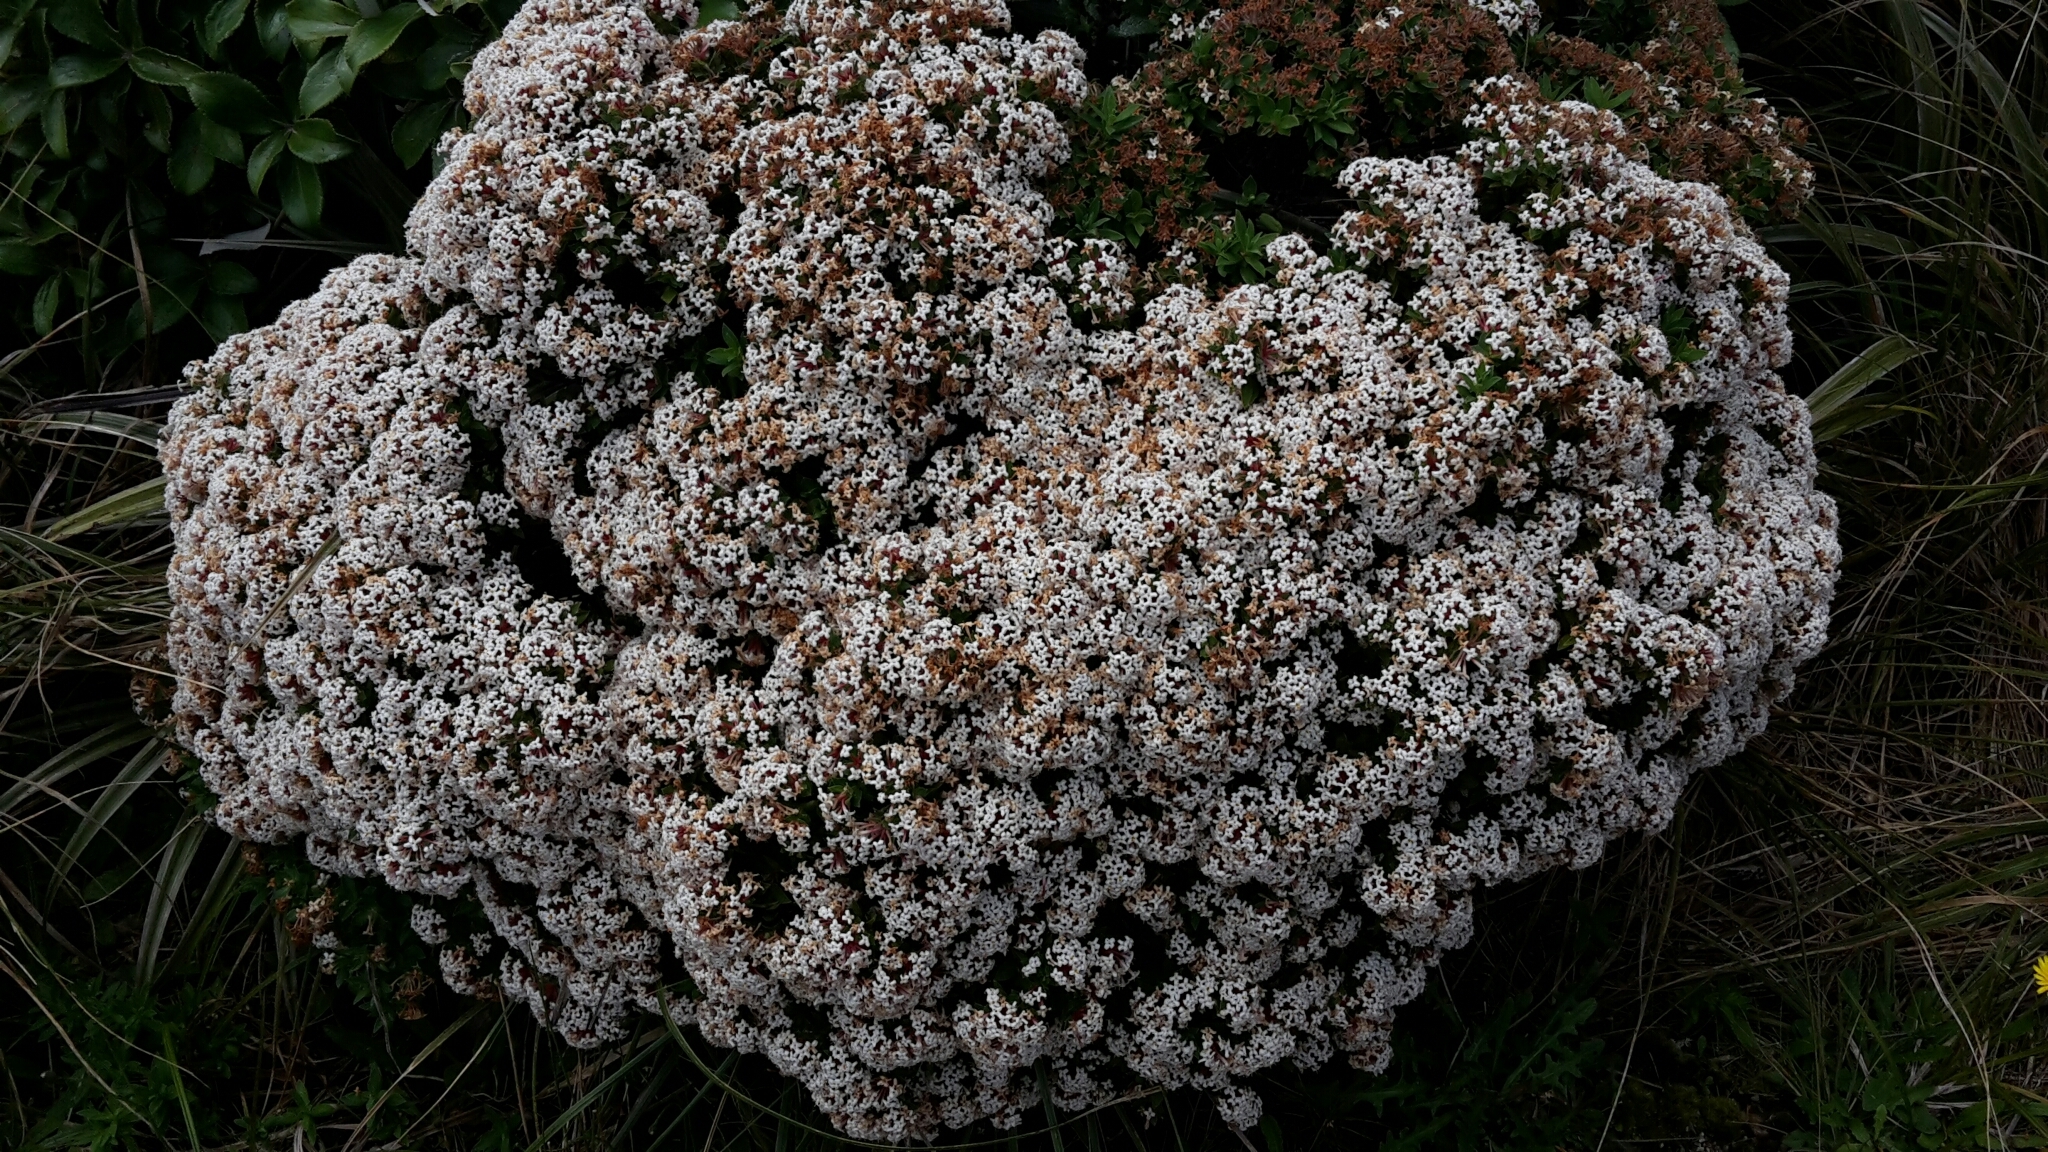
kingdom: Plantae
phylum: Tracheophyta
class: Magnoliopsida
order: Malvales
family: Thymelaeaceae
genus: Pimelea
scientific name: Pimelea gnidia
